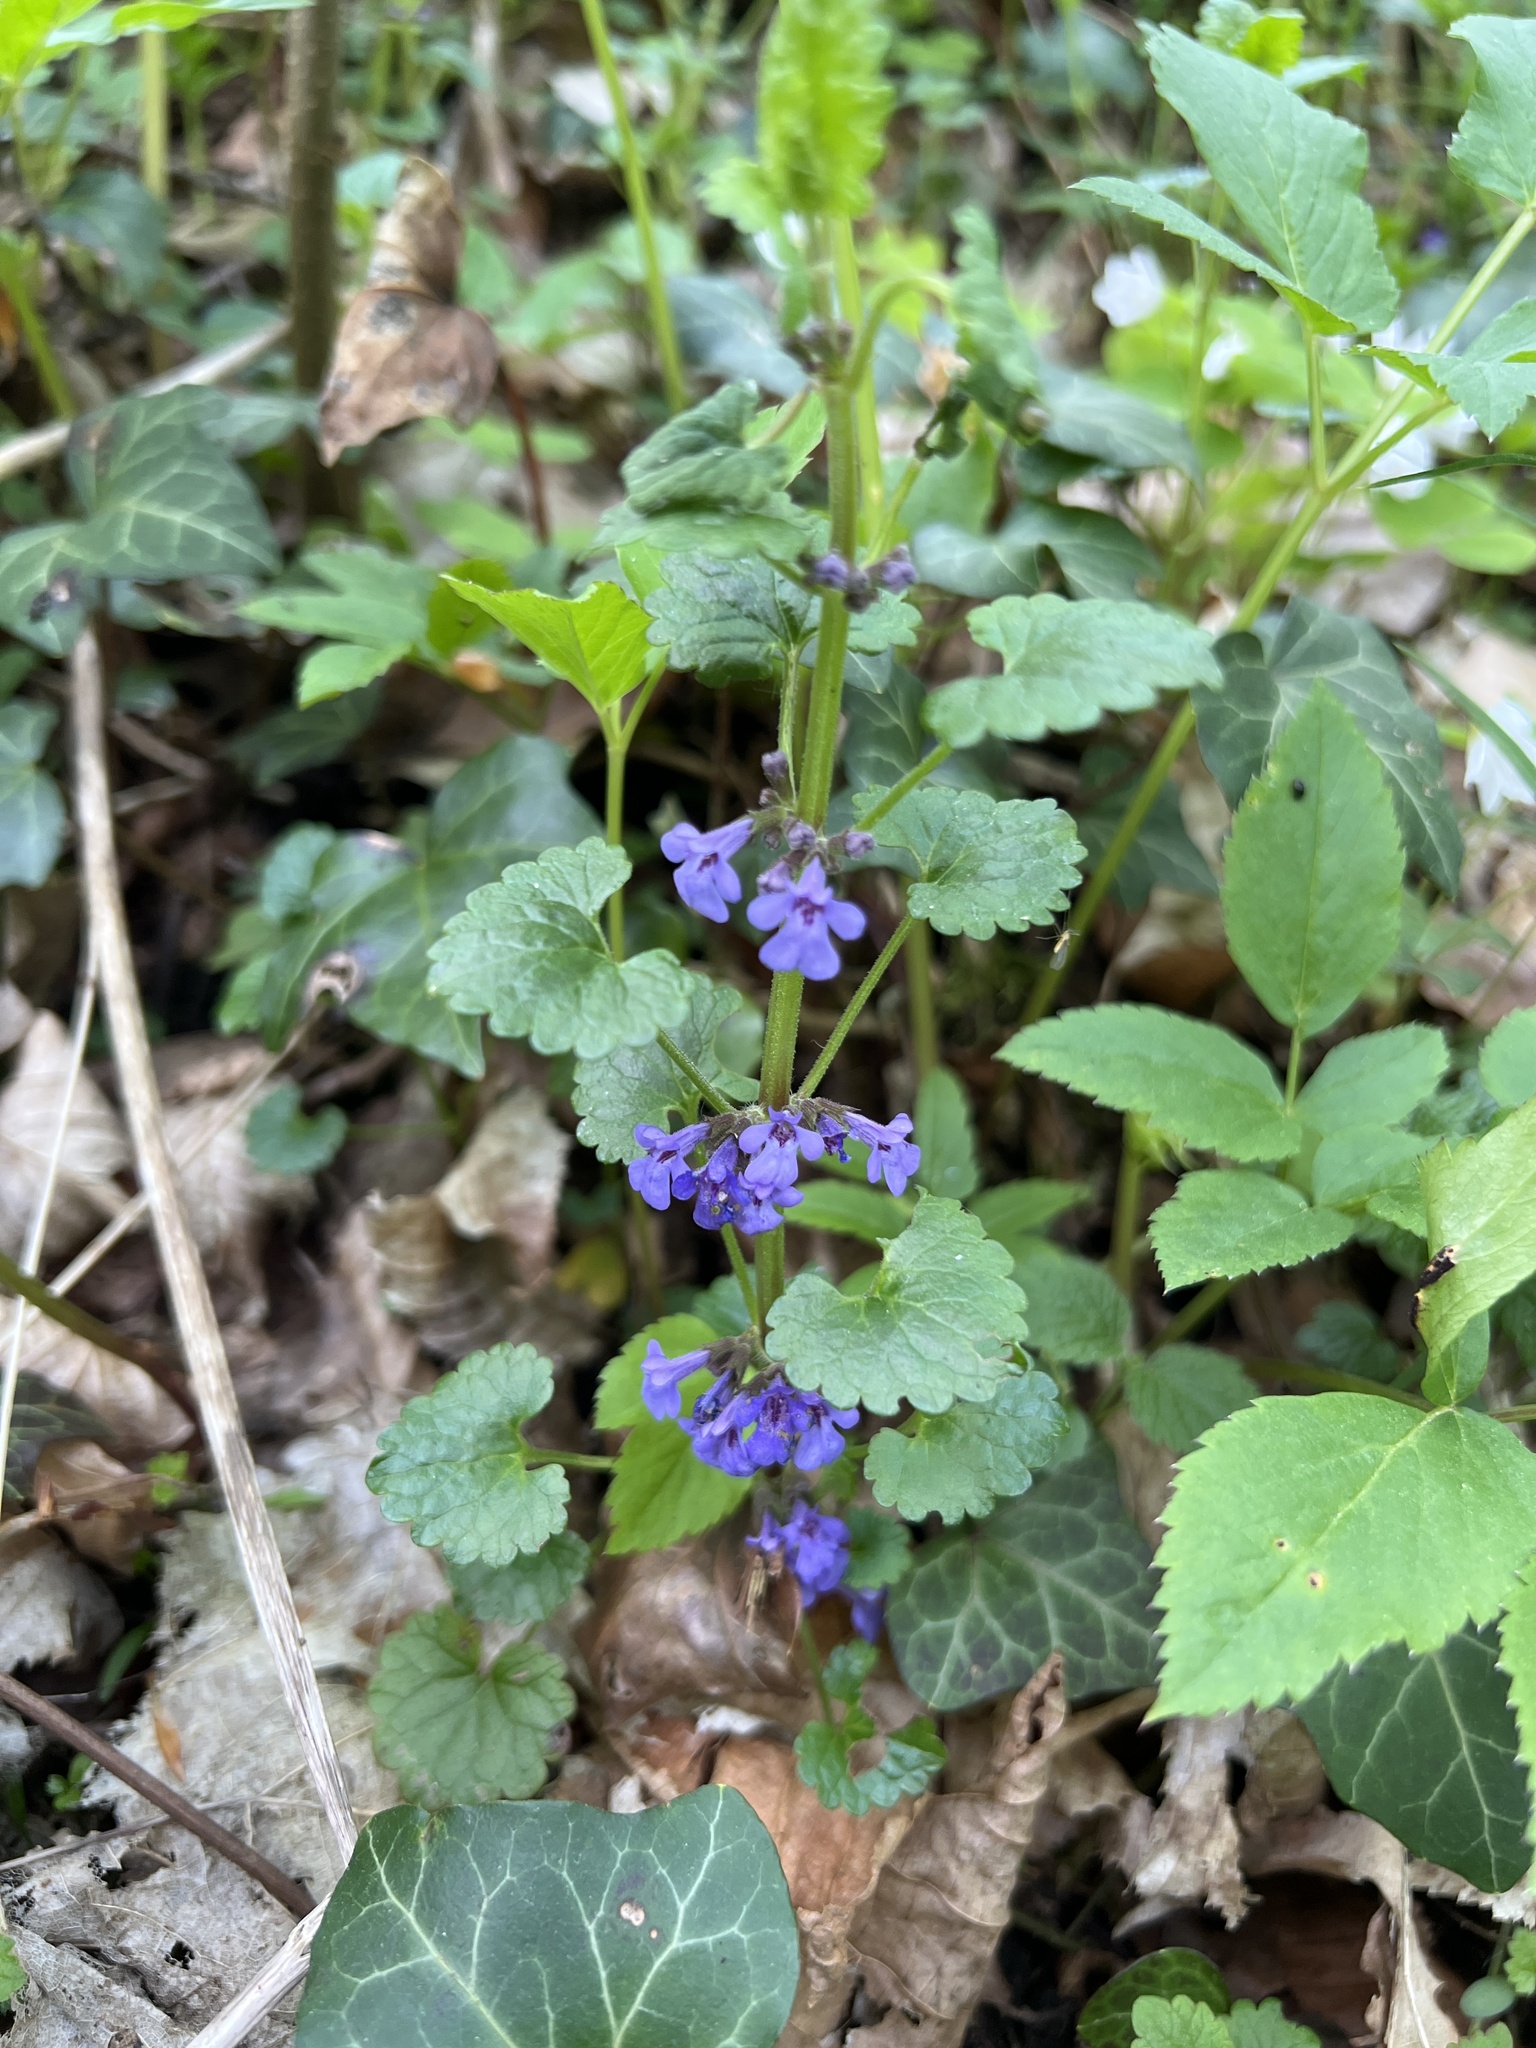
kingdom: Plantae
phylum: Tracheophyta
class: Magnoliopsida
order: Lamiales
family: Lamiaceae
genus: Glechoma
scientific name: Glechoma hederacea
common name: Ground ivy
